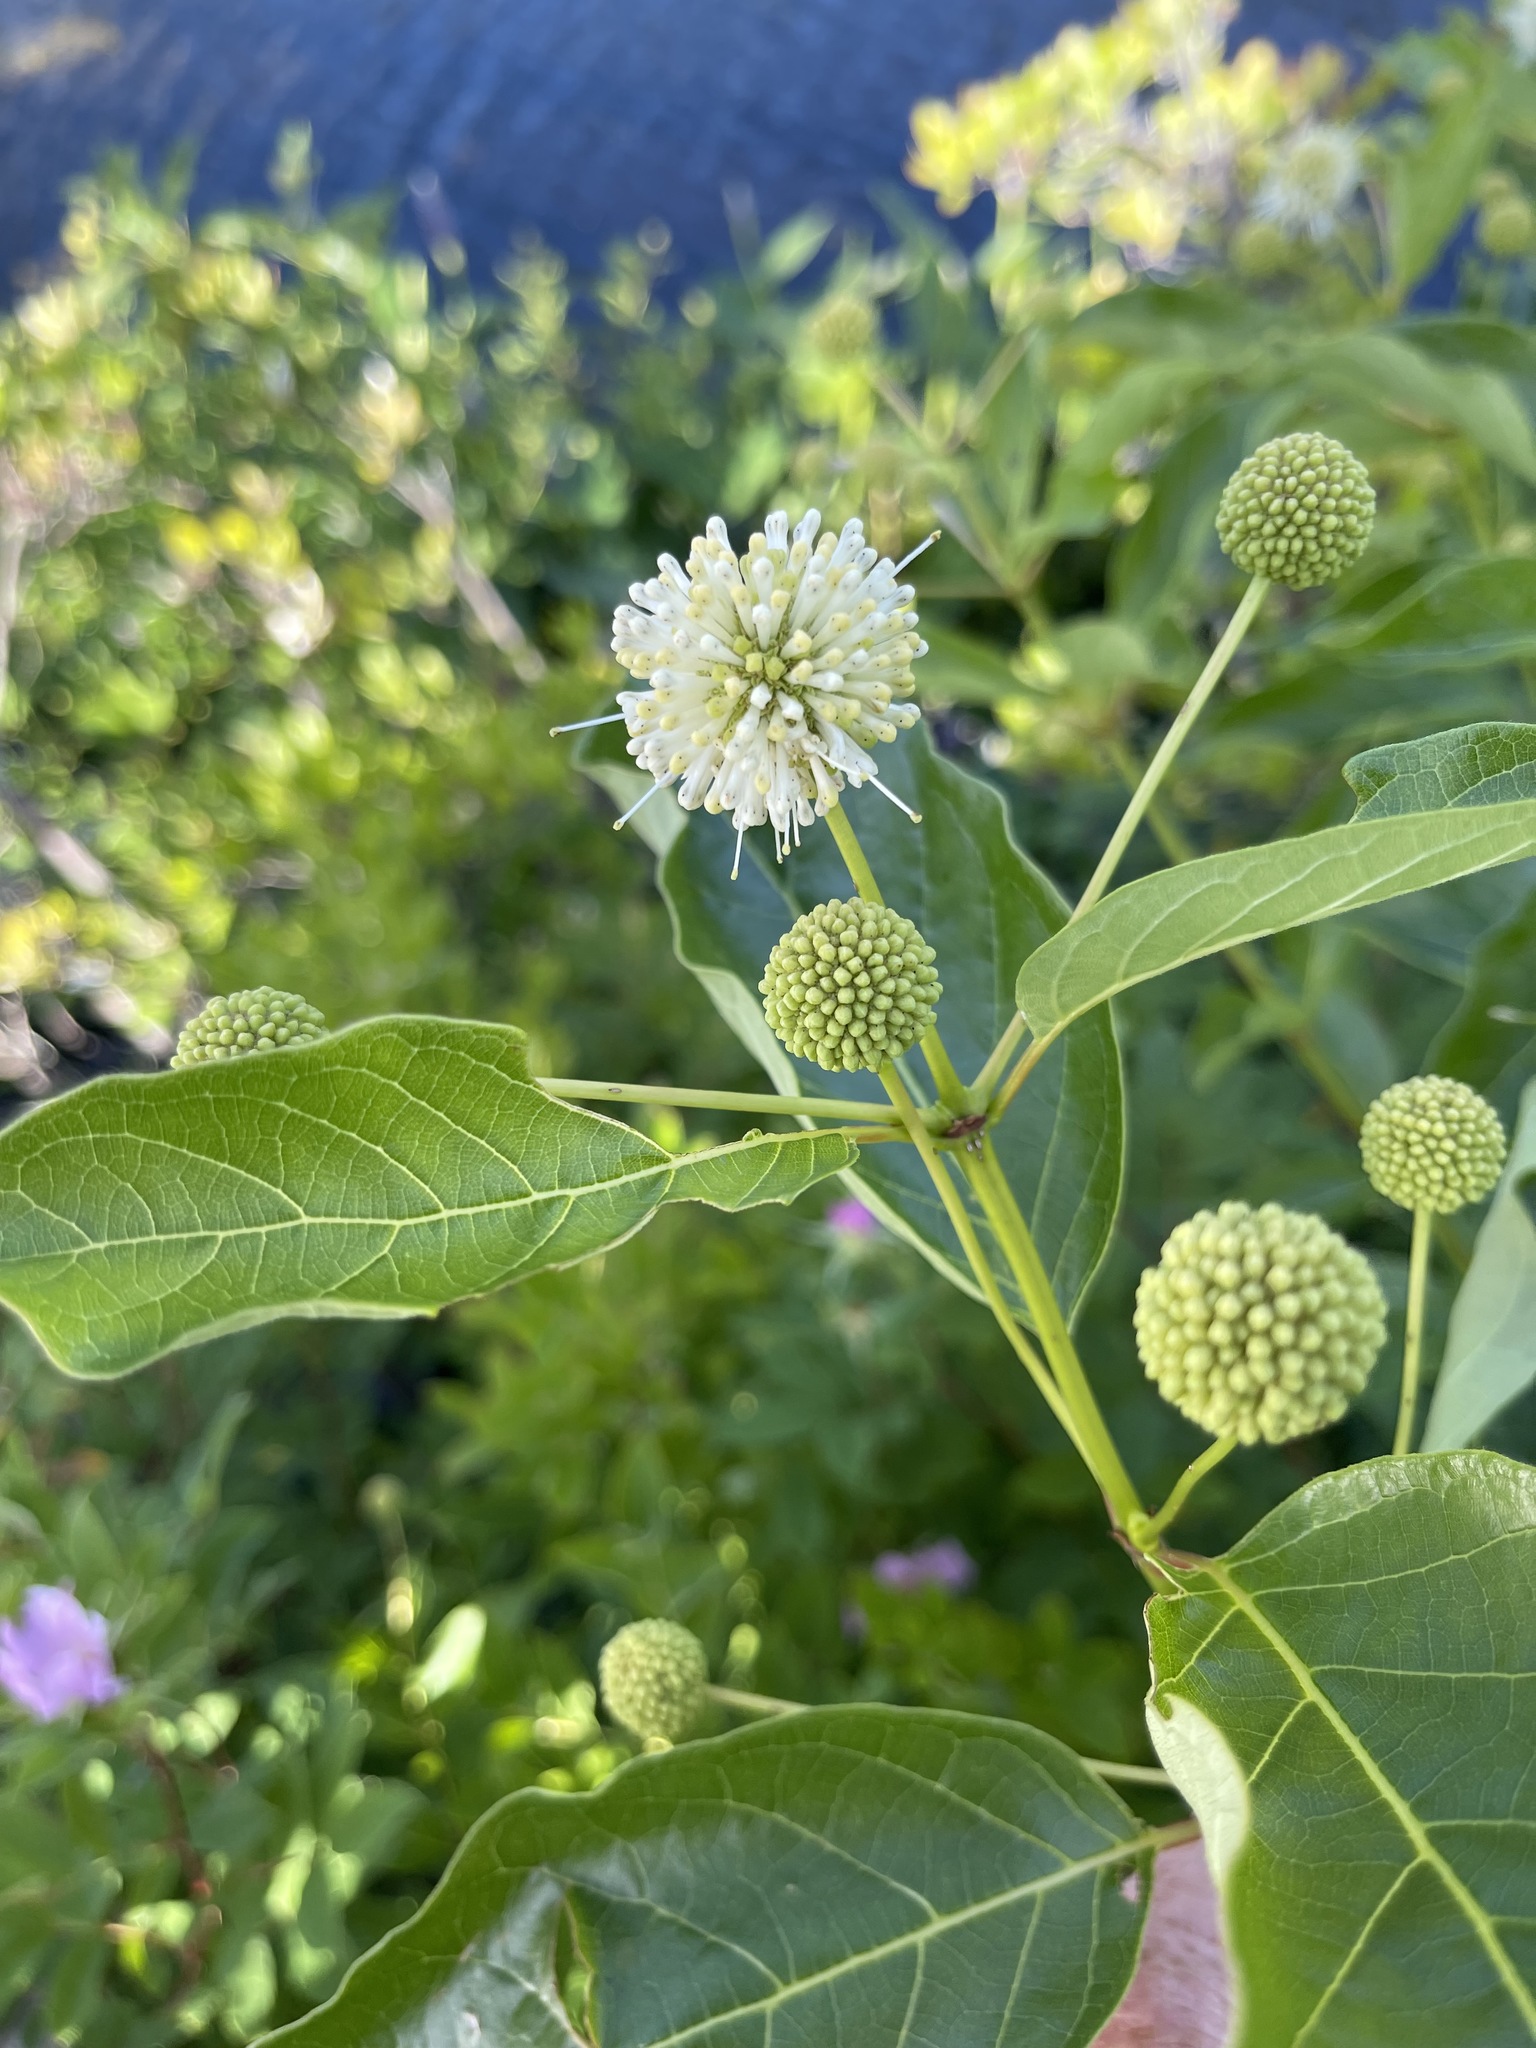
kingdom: Plantae
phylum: Tracheophyta
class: Magnoliopsida
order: Gentianales
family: Rubiaceae
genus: Cephalanthus
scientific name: Cephalanthus occidentalis
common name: Button-willow
